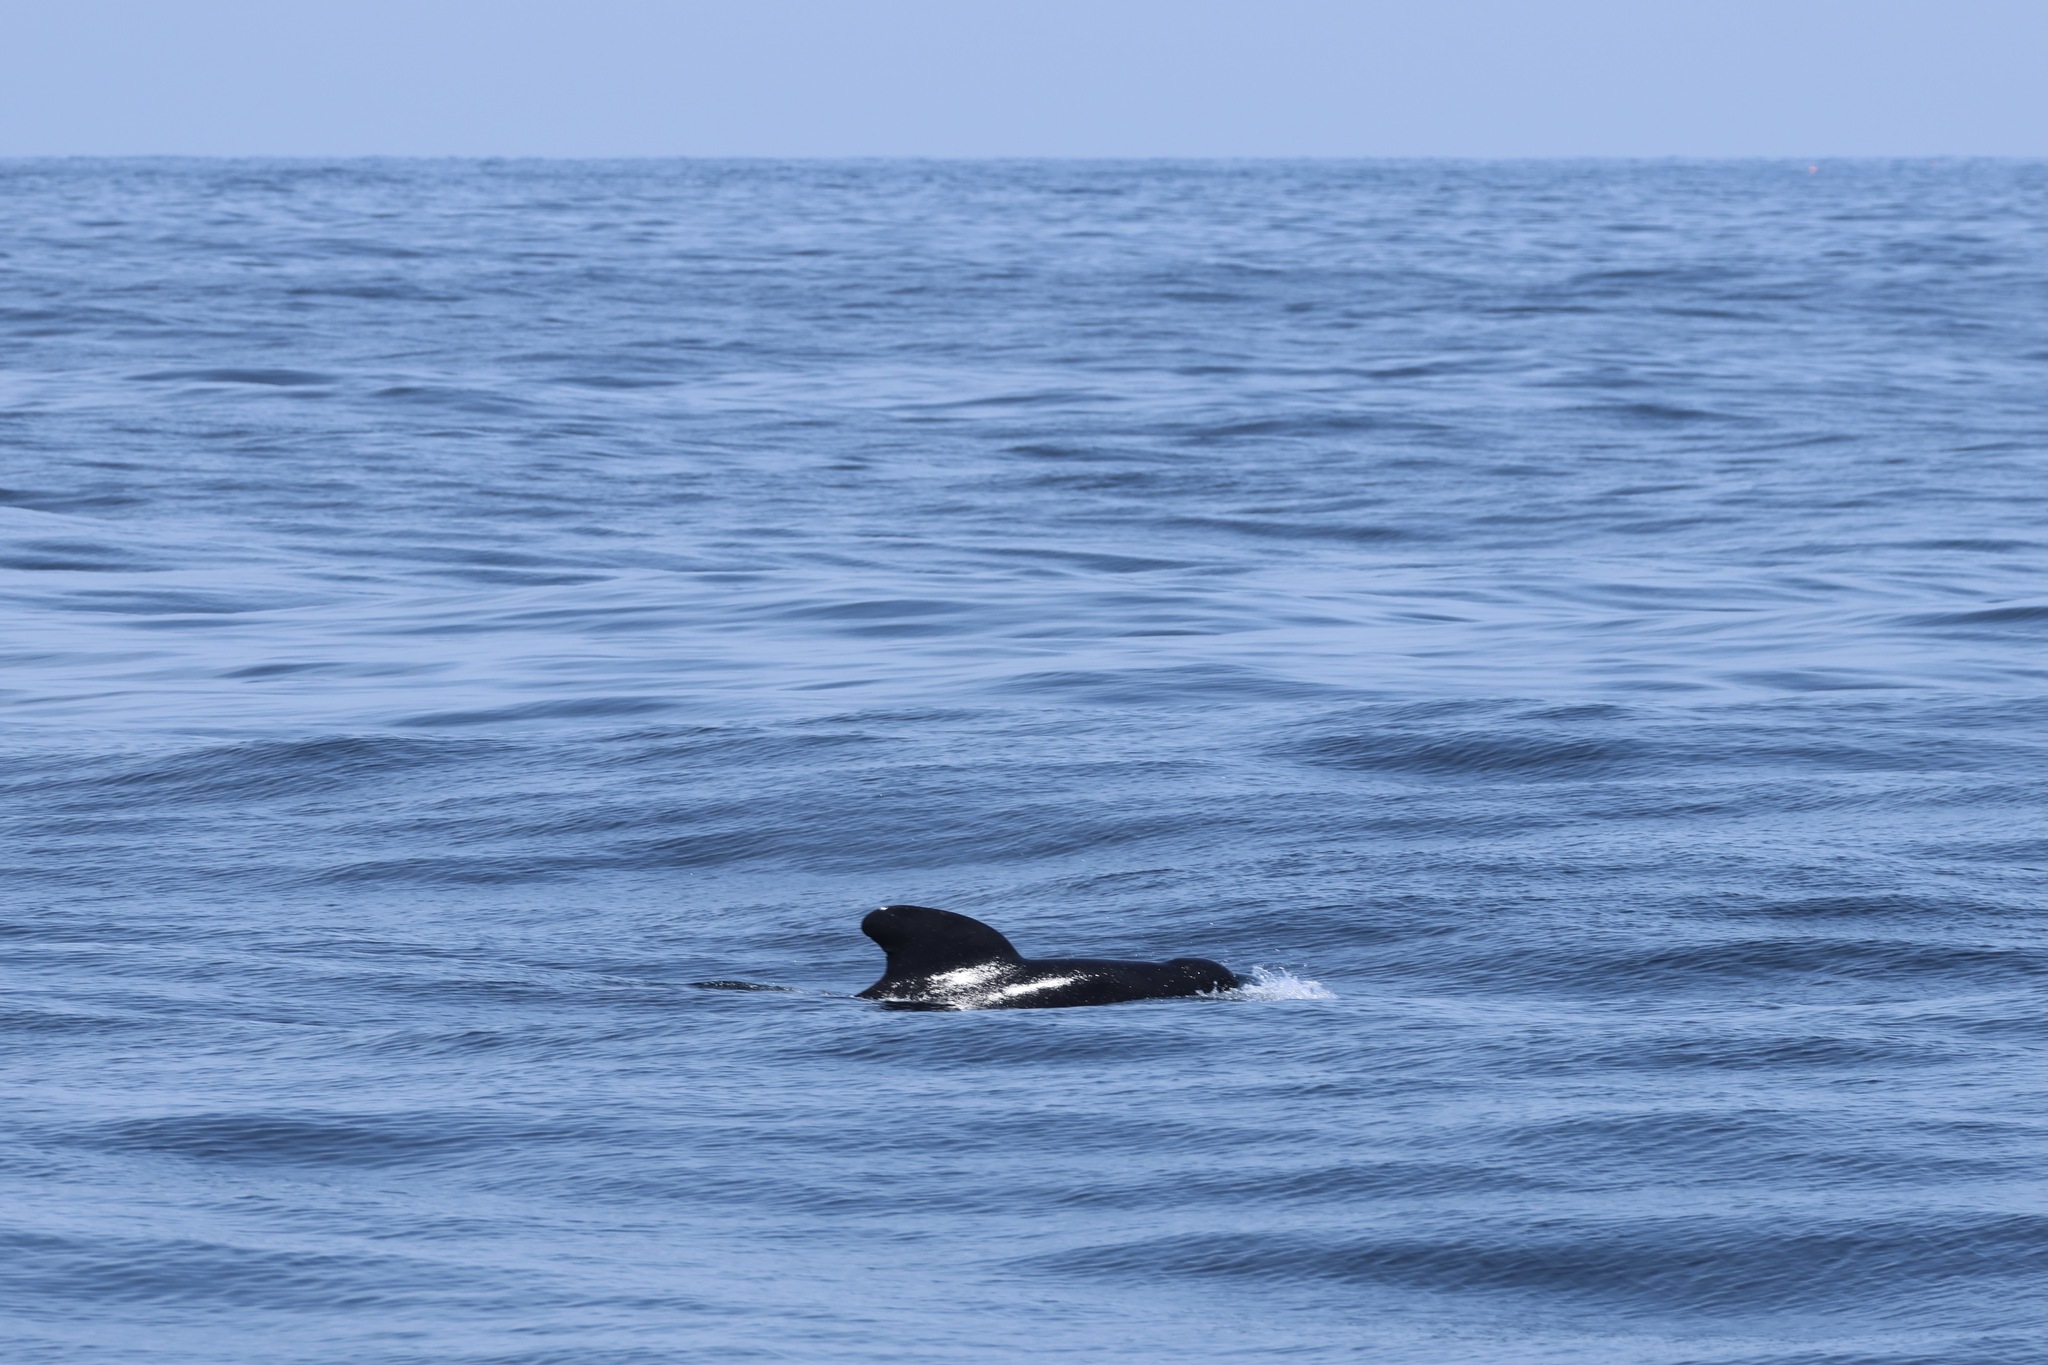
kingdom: Animalia
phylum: Chordata
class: Mammalia
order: Cetacea
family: Delphinidae
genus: Globicephala
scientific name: Globicephala melas
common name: Long-finned pilot whale
